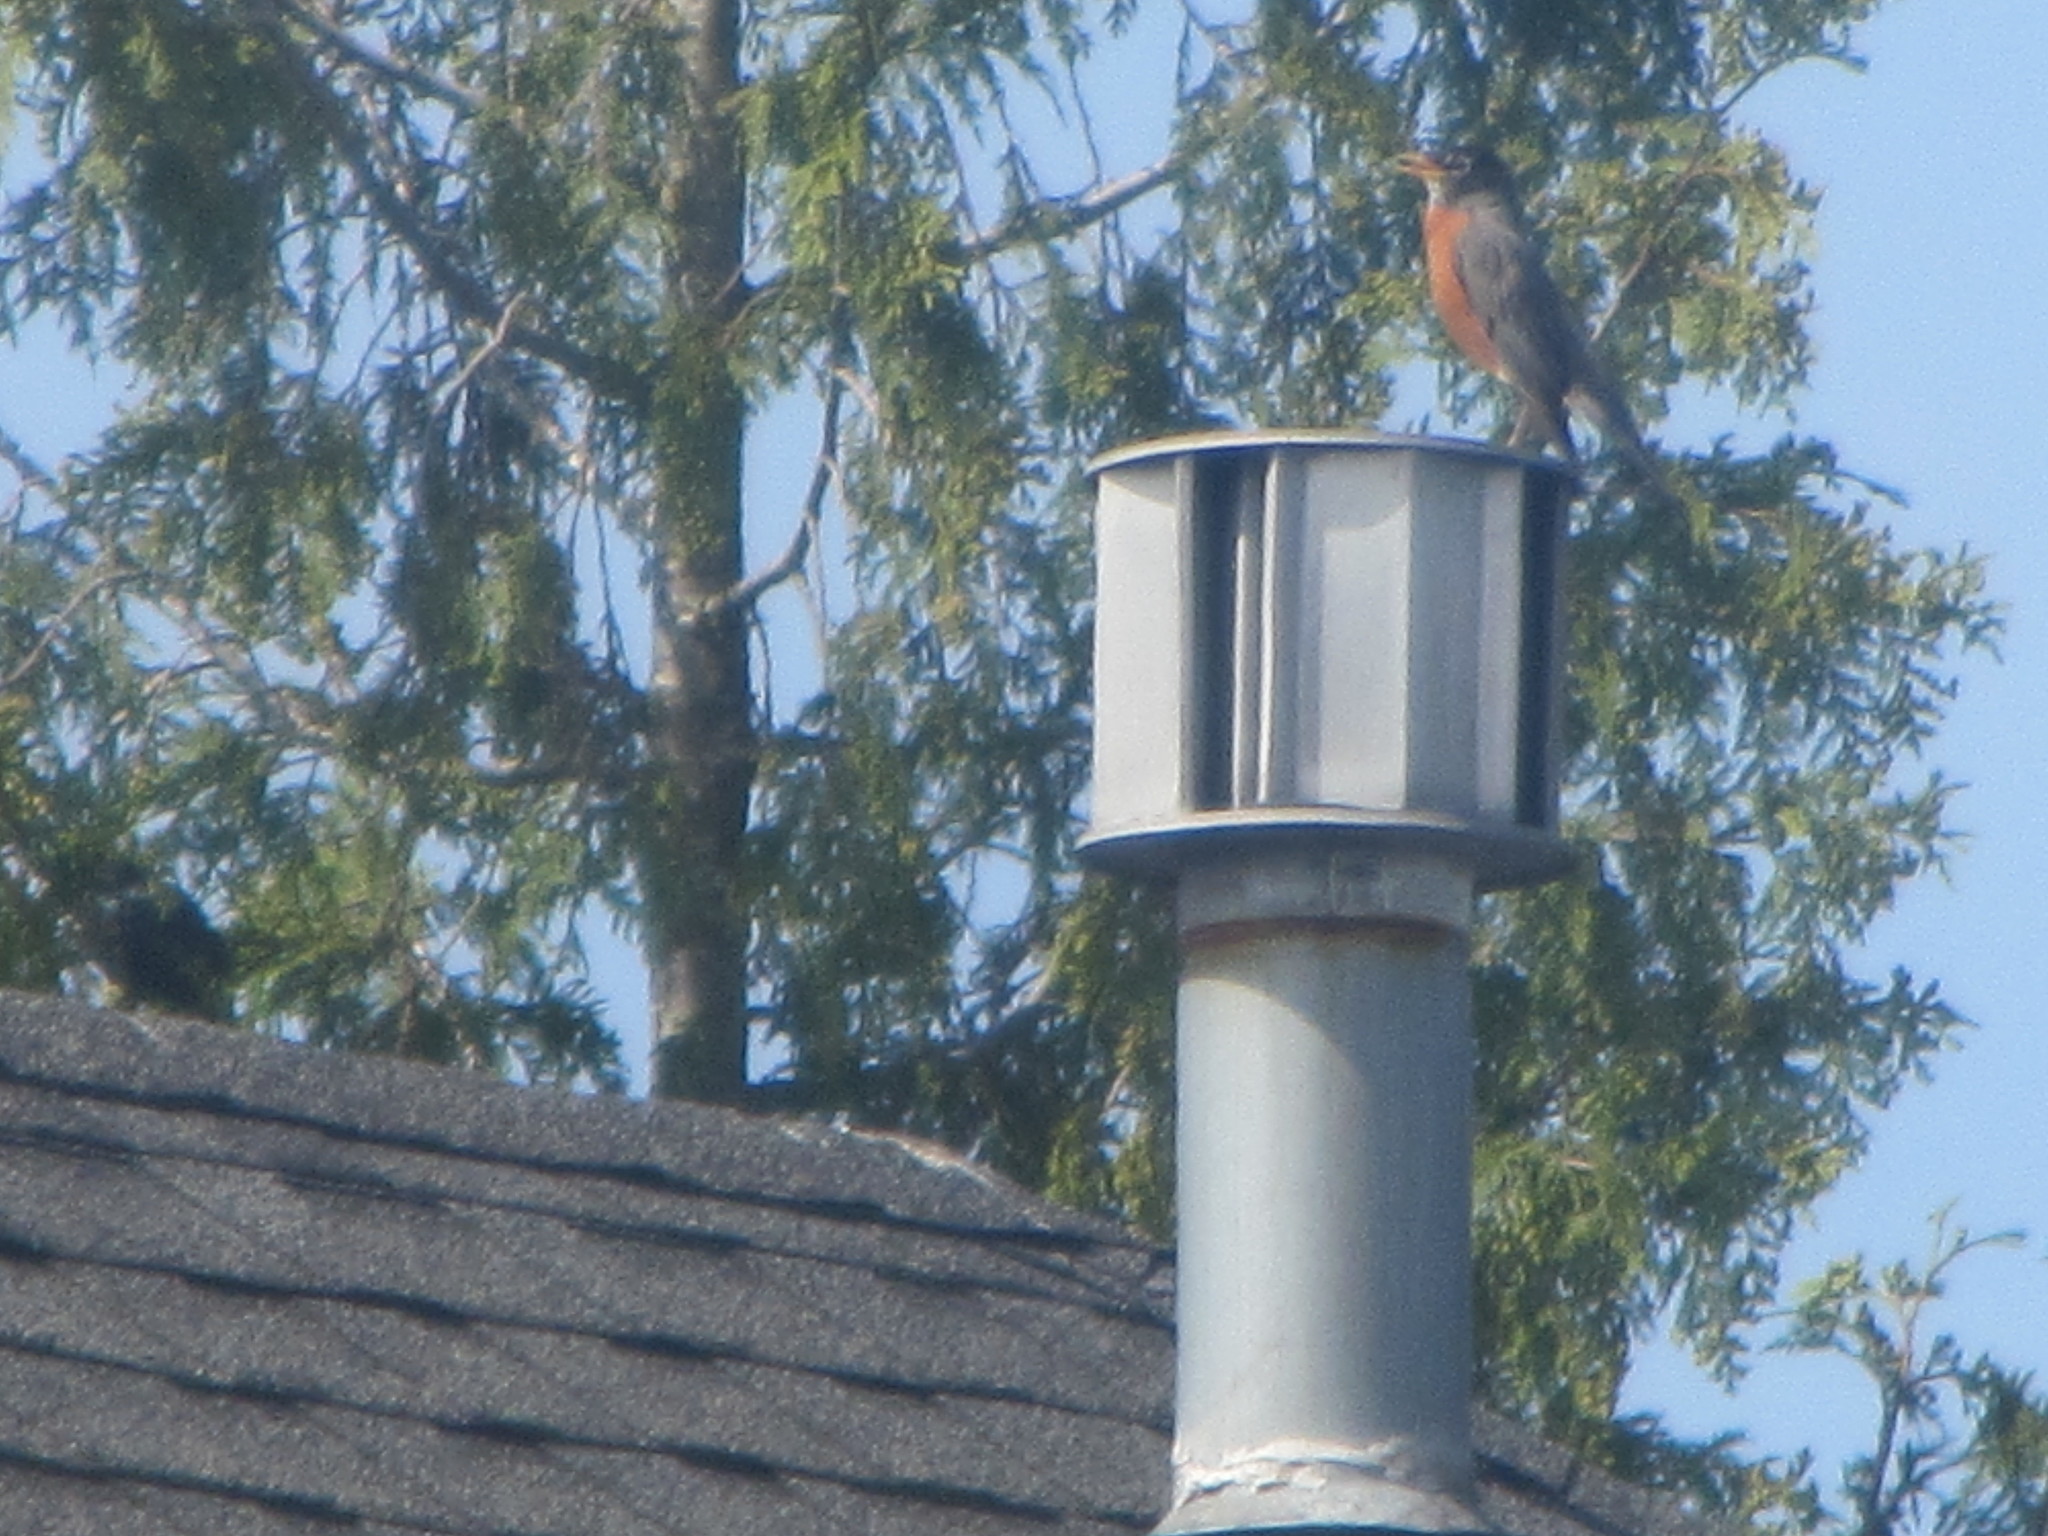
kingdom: Animalia
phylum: Chordata
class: Aves
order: Passeriformes
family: Turdidae
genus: Turdus
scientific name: Turdus migratorius
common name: American robin
